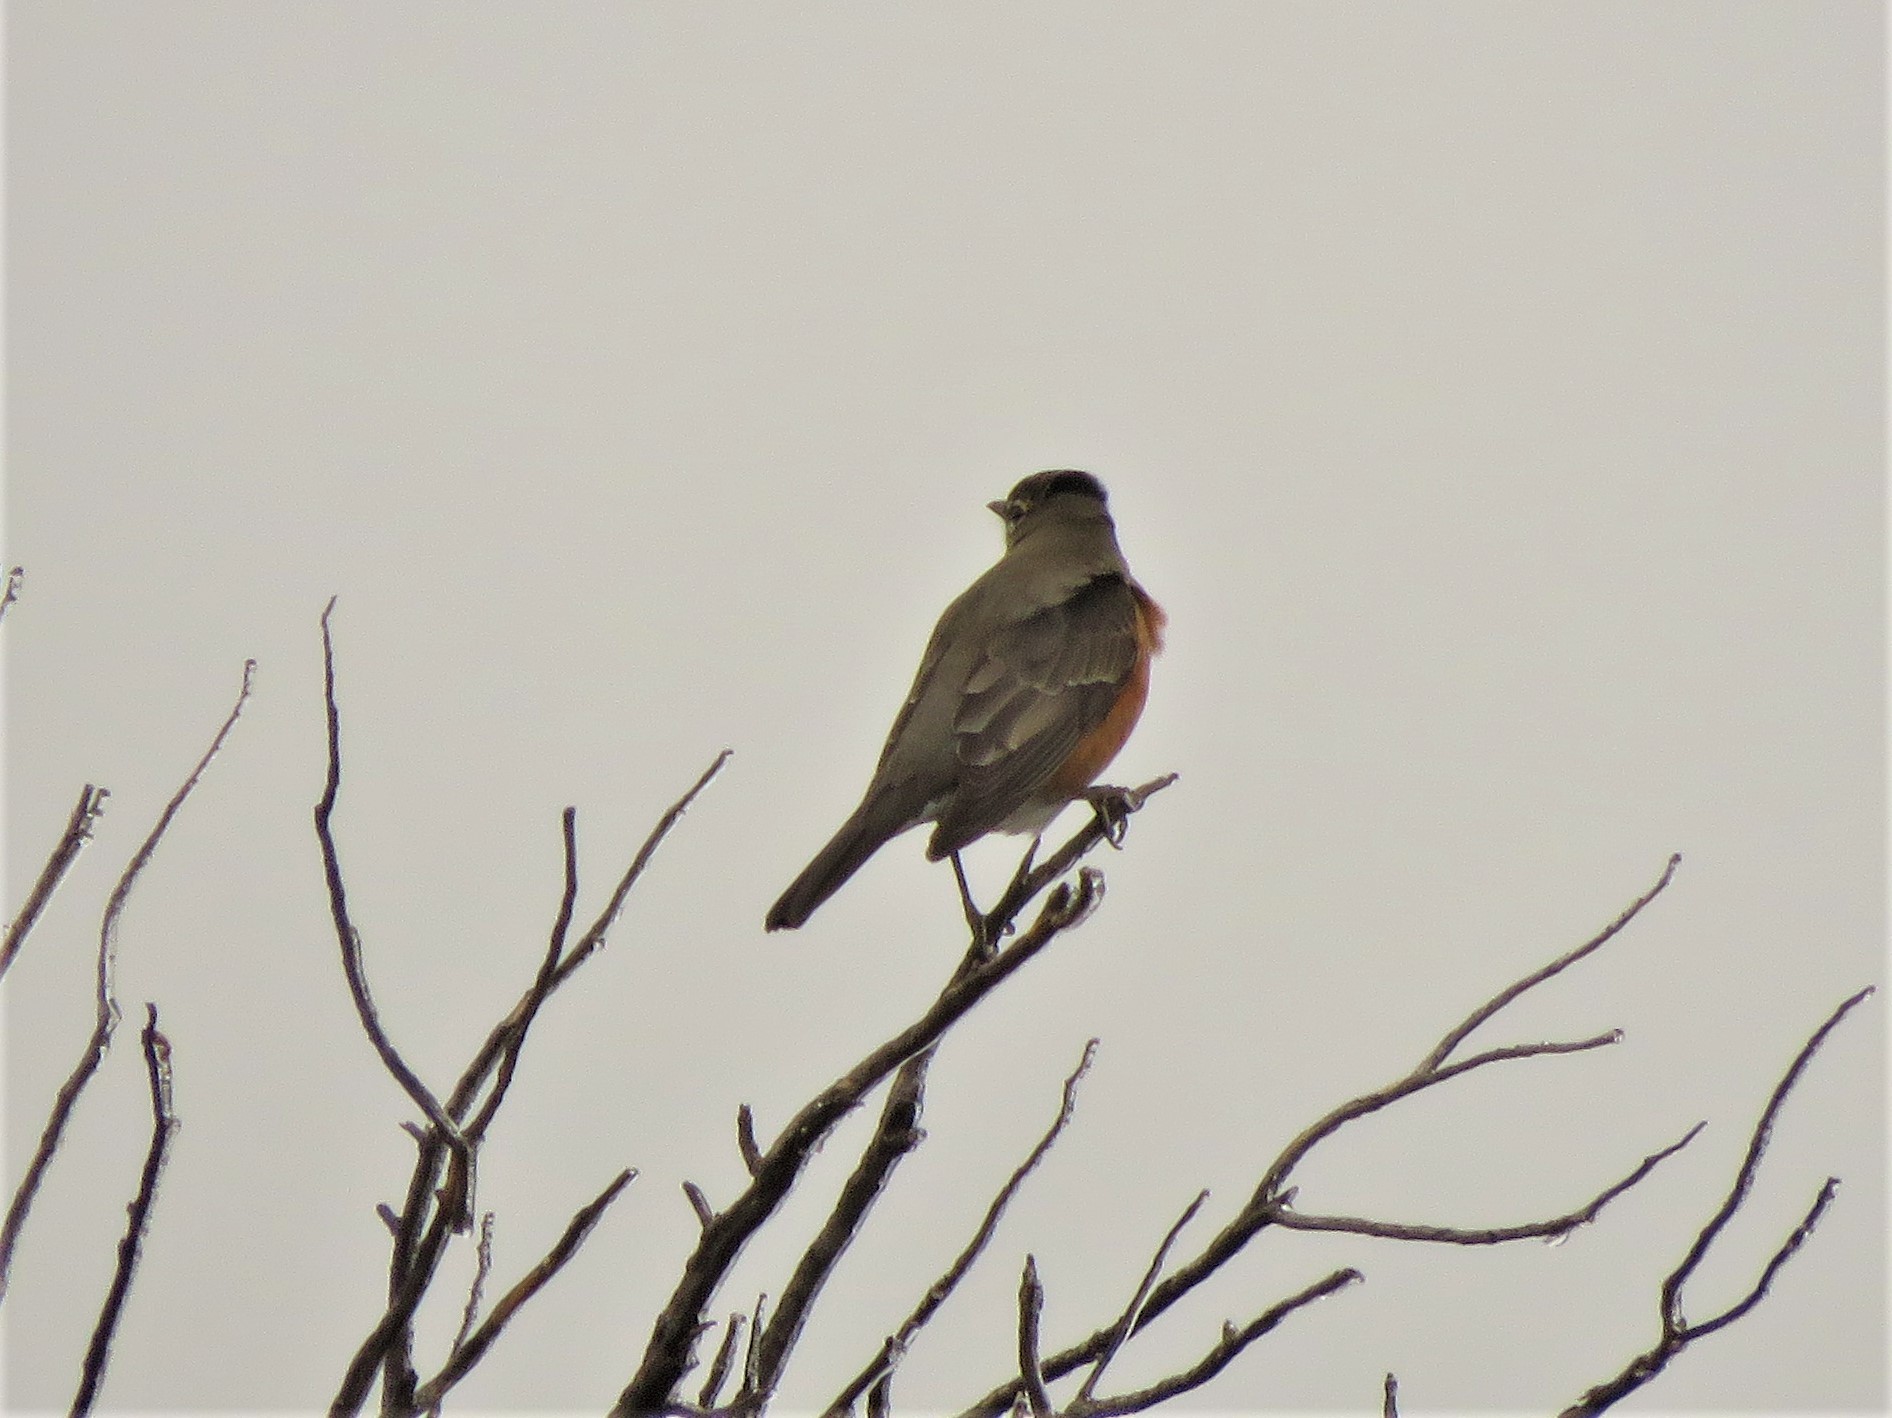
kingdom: Animalia
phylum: Chordata
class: Aves
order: Passeriformes
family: Turdidae
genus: Turdus
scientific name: Turdus migratorius
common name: American robin
